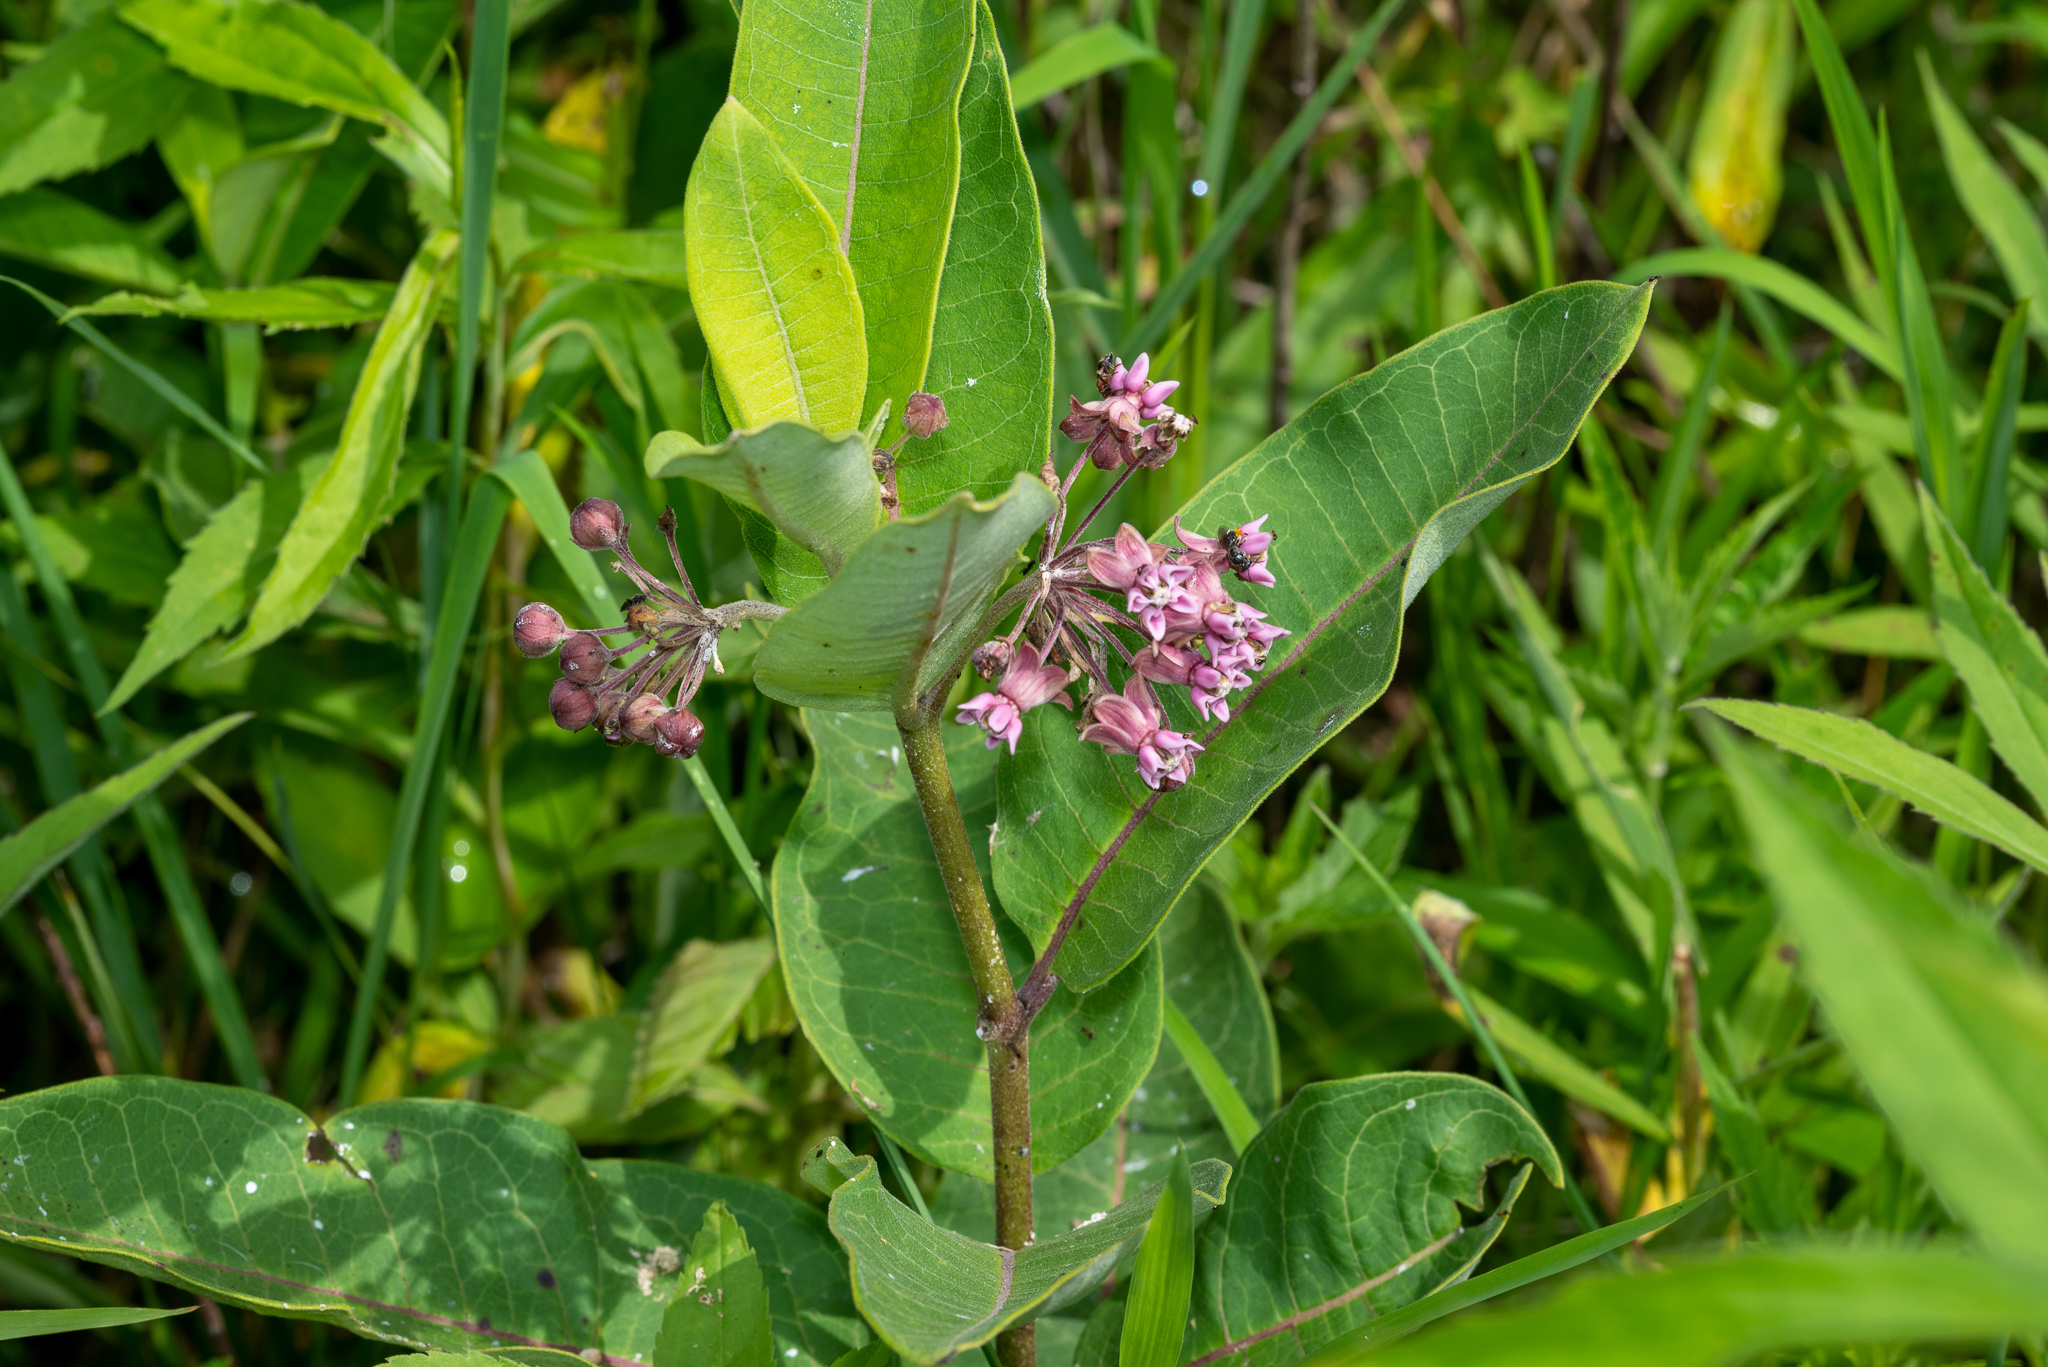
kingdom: Plantae
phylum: Tracheophyta
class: Magnoliopsida
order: Gentianales
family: Apocynaceae
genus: Asclepias
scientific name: Asclepias syriaca
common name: Common milkweed
